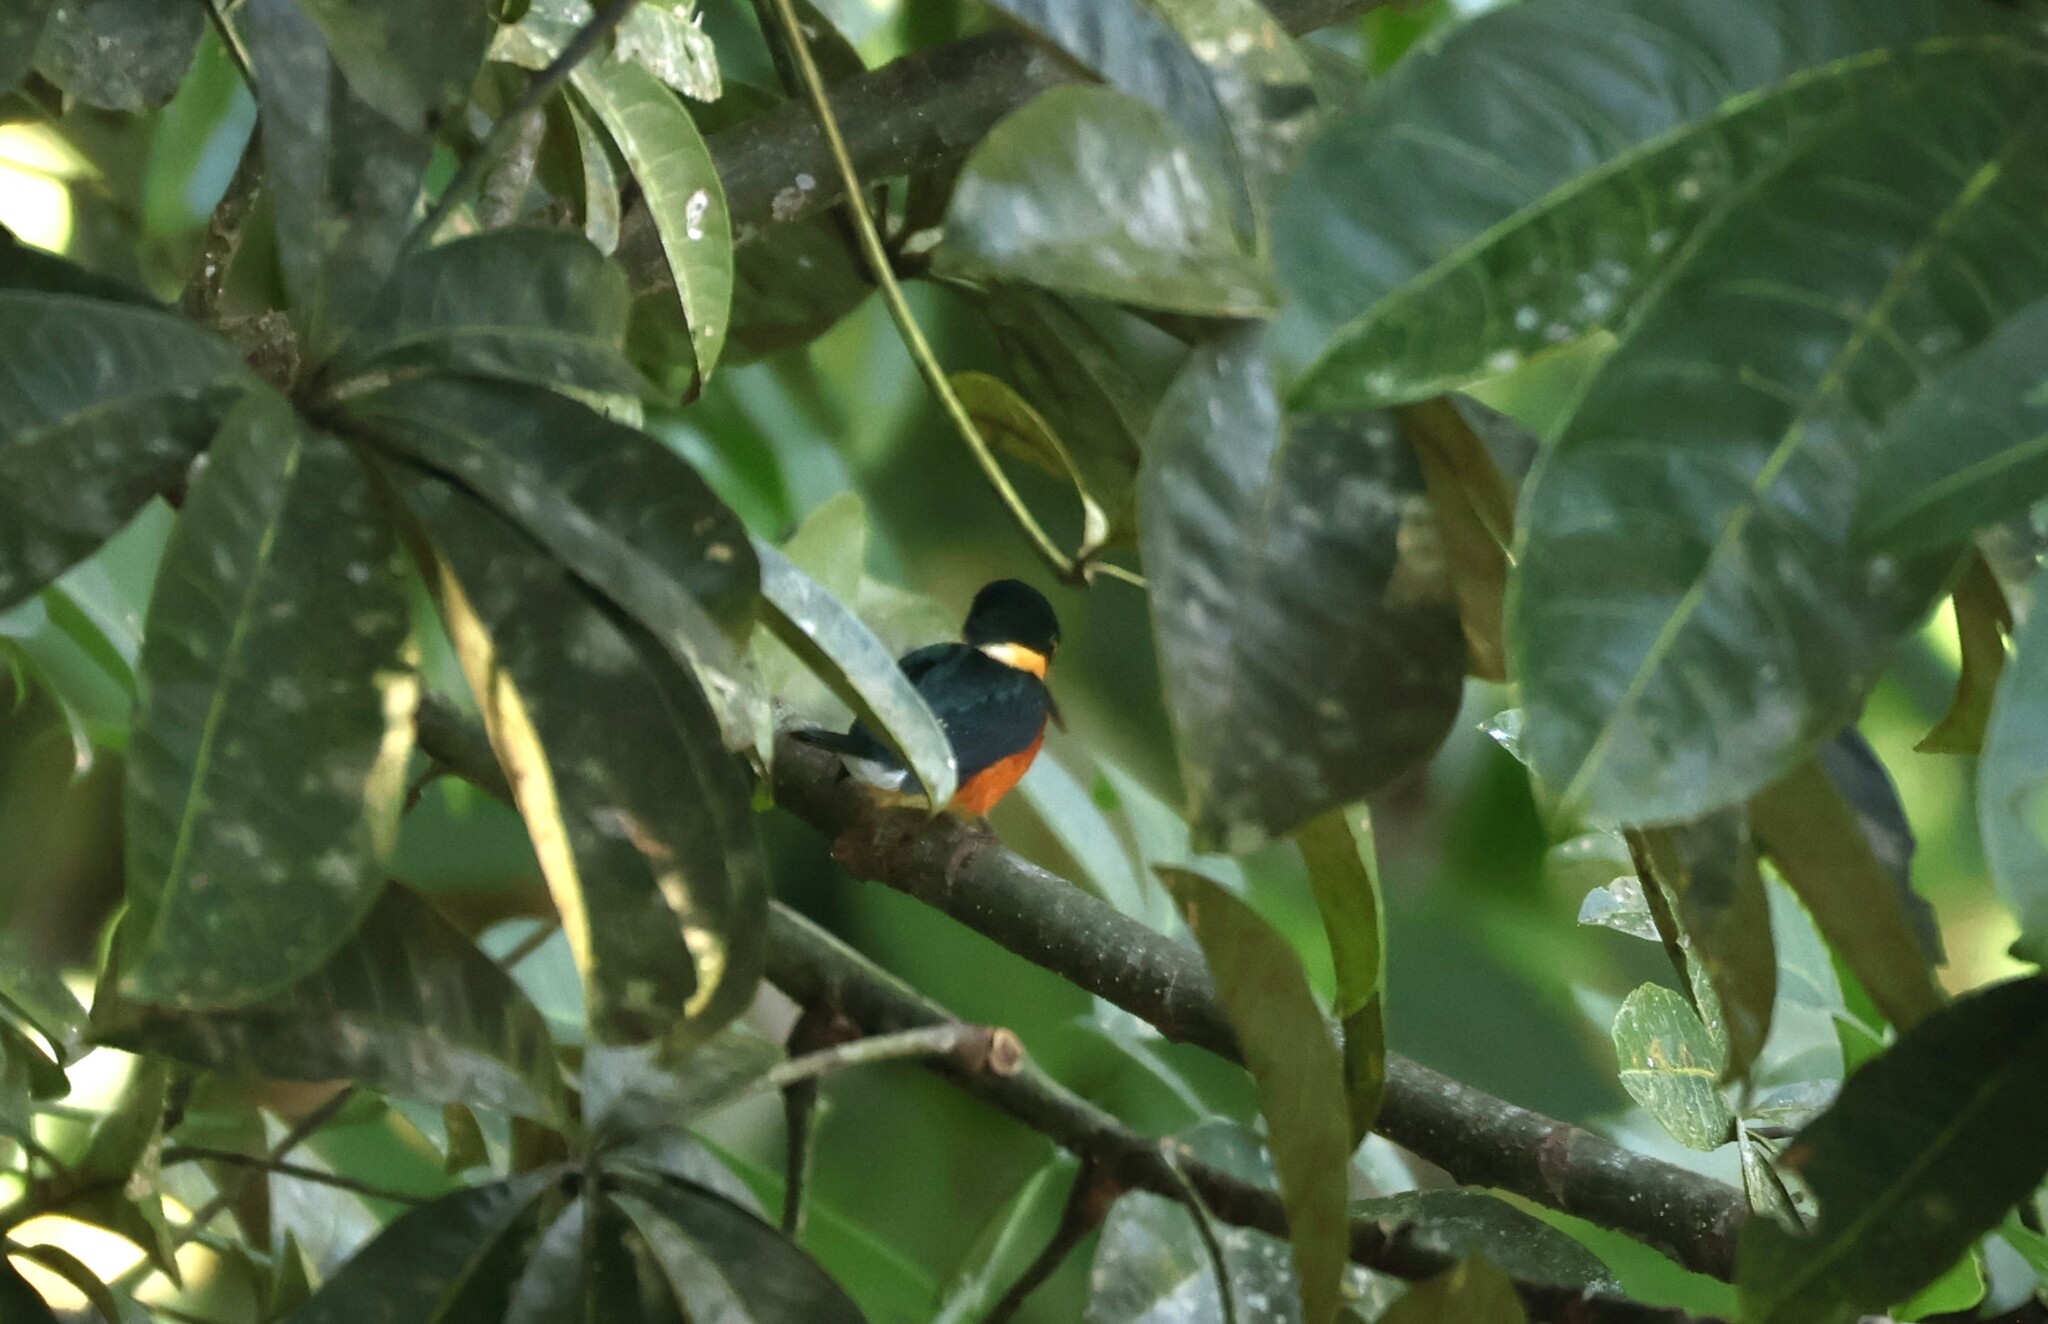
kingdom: Animalia
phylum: Chordata
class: Aves
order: Coraciiformes
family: Alcedinidae
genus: Chloroceryle
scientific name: Chloroceryle aenea
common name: American pygmy kingfisher
